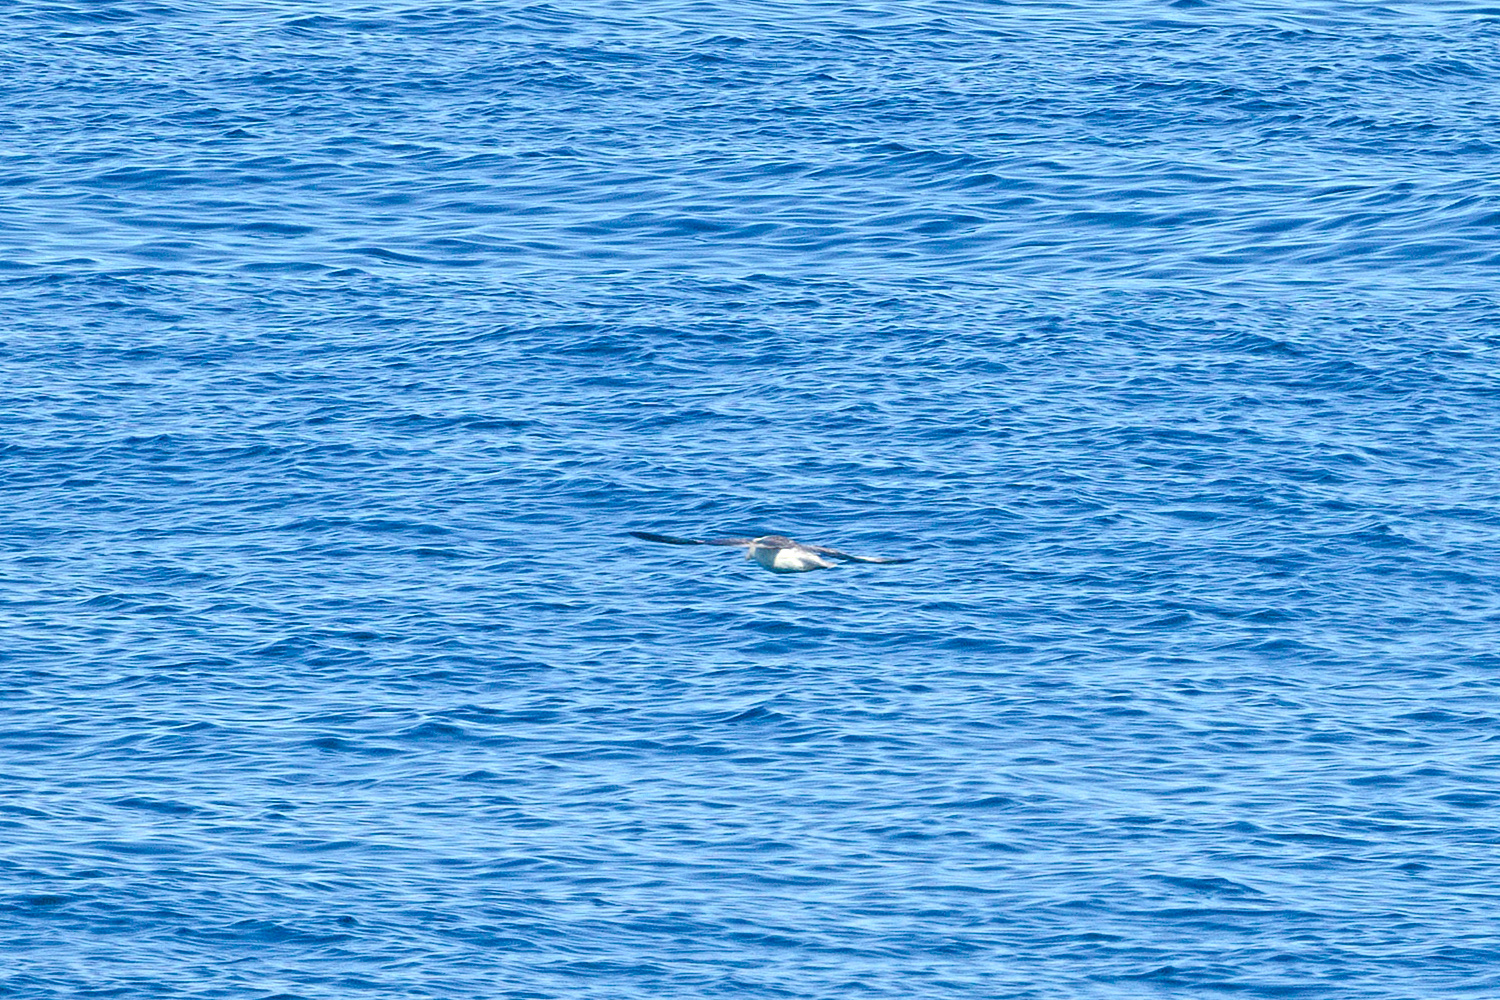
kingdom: Animalia
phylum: Chordata
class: Aves
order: Procellariiformes
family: Procellariidae
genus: Fulmarus
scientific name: Fulmarus glacialis
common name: Northern fulmar
